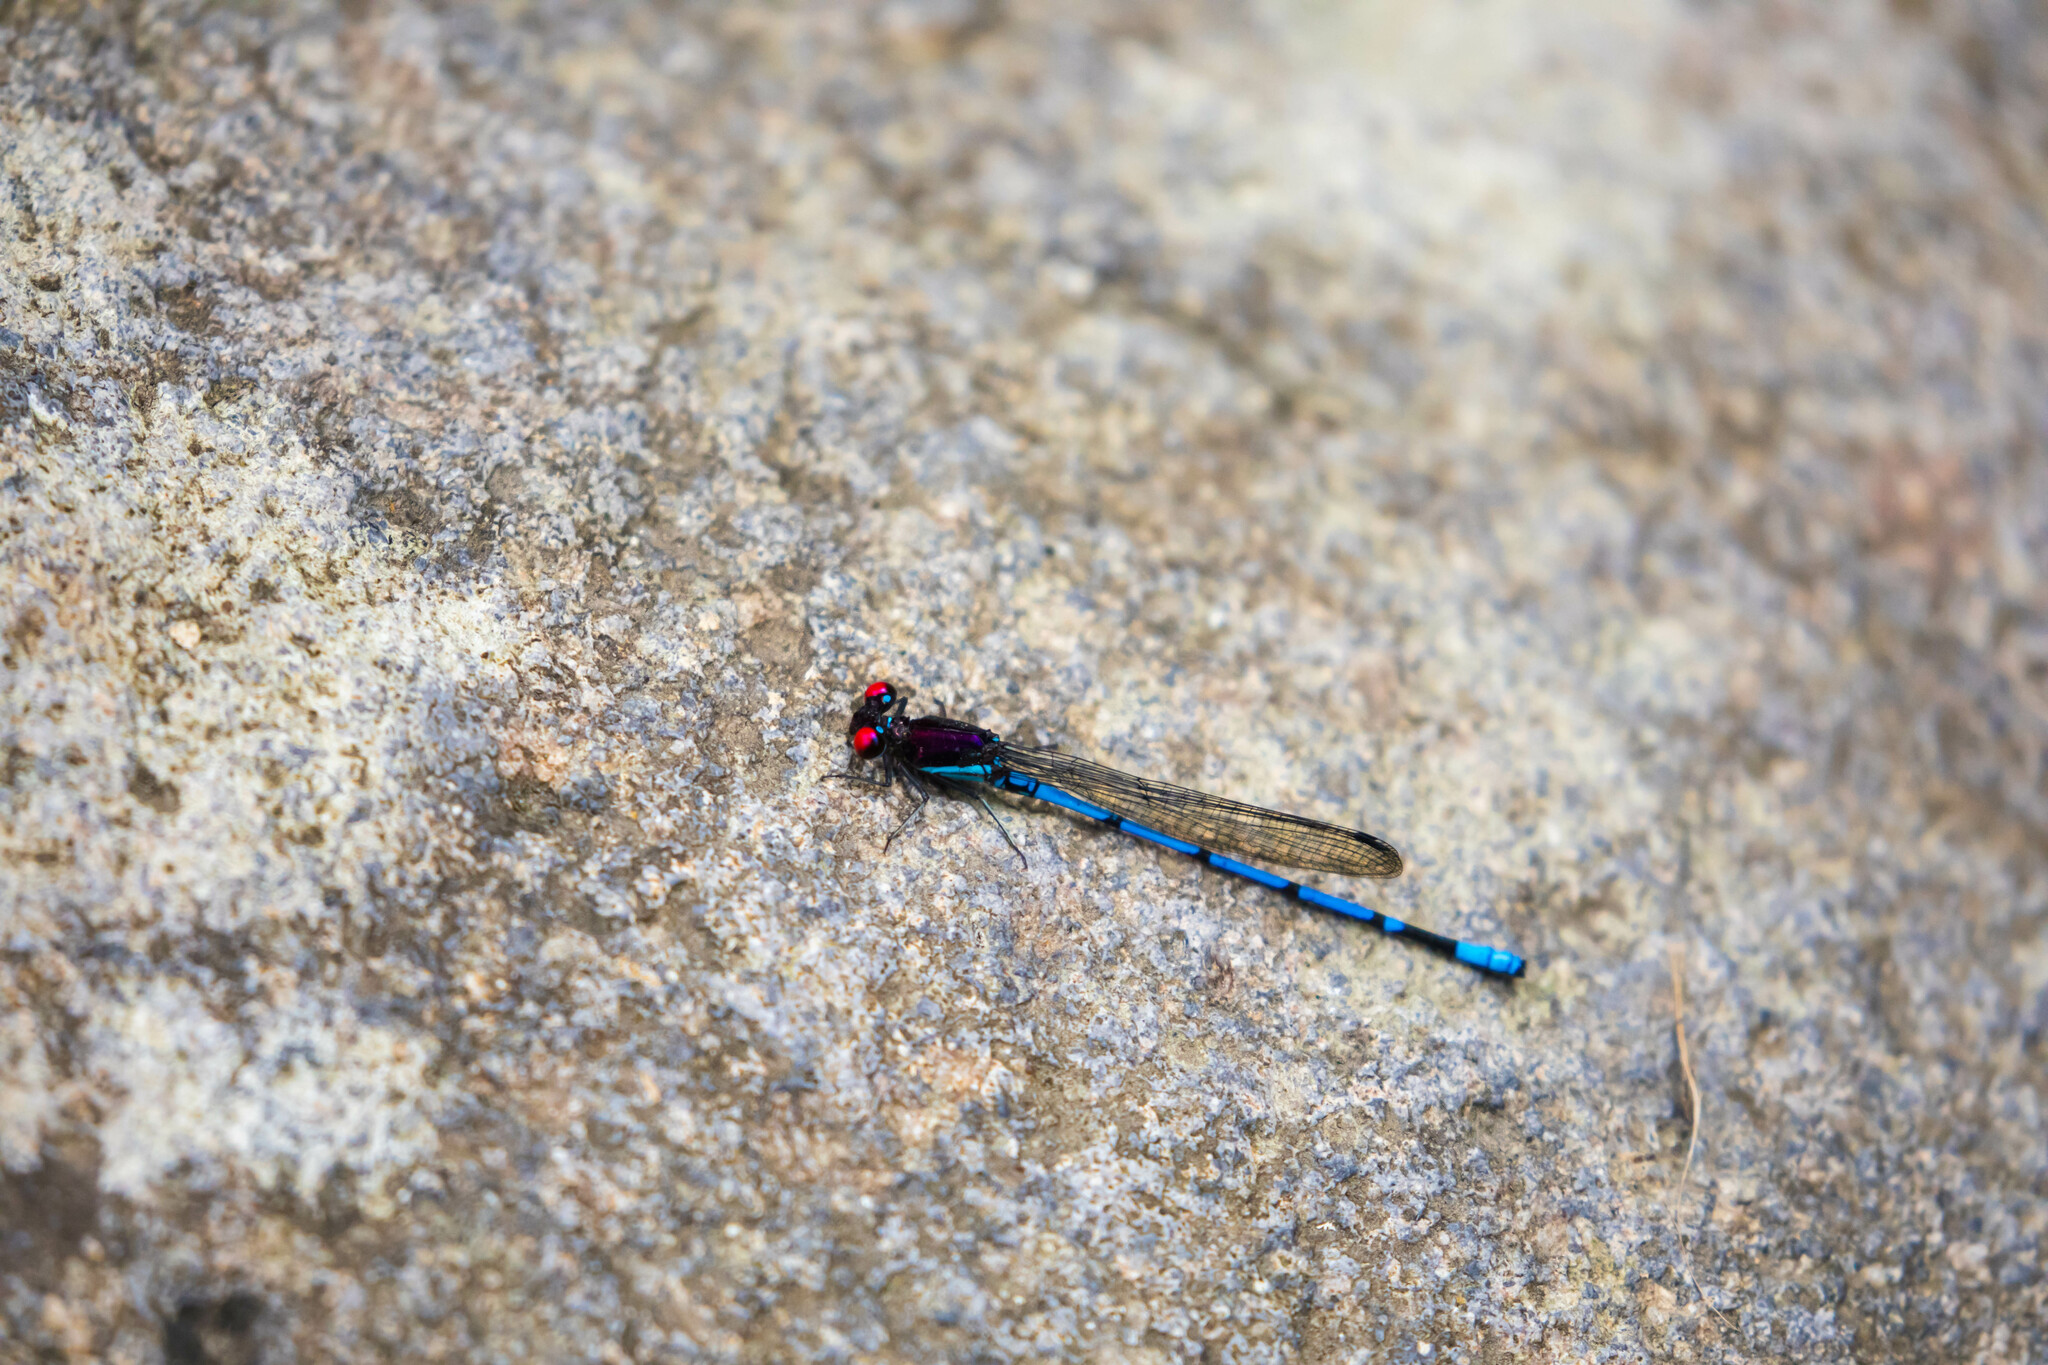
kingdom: Animalia
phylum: Arthropoda
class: Insecta
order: Odonata
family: Coenagrionidae
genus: Argia
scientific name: Argia cupraurea
